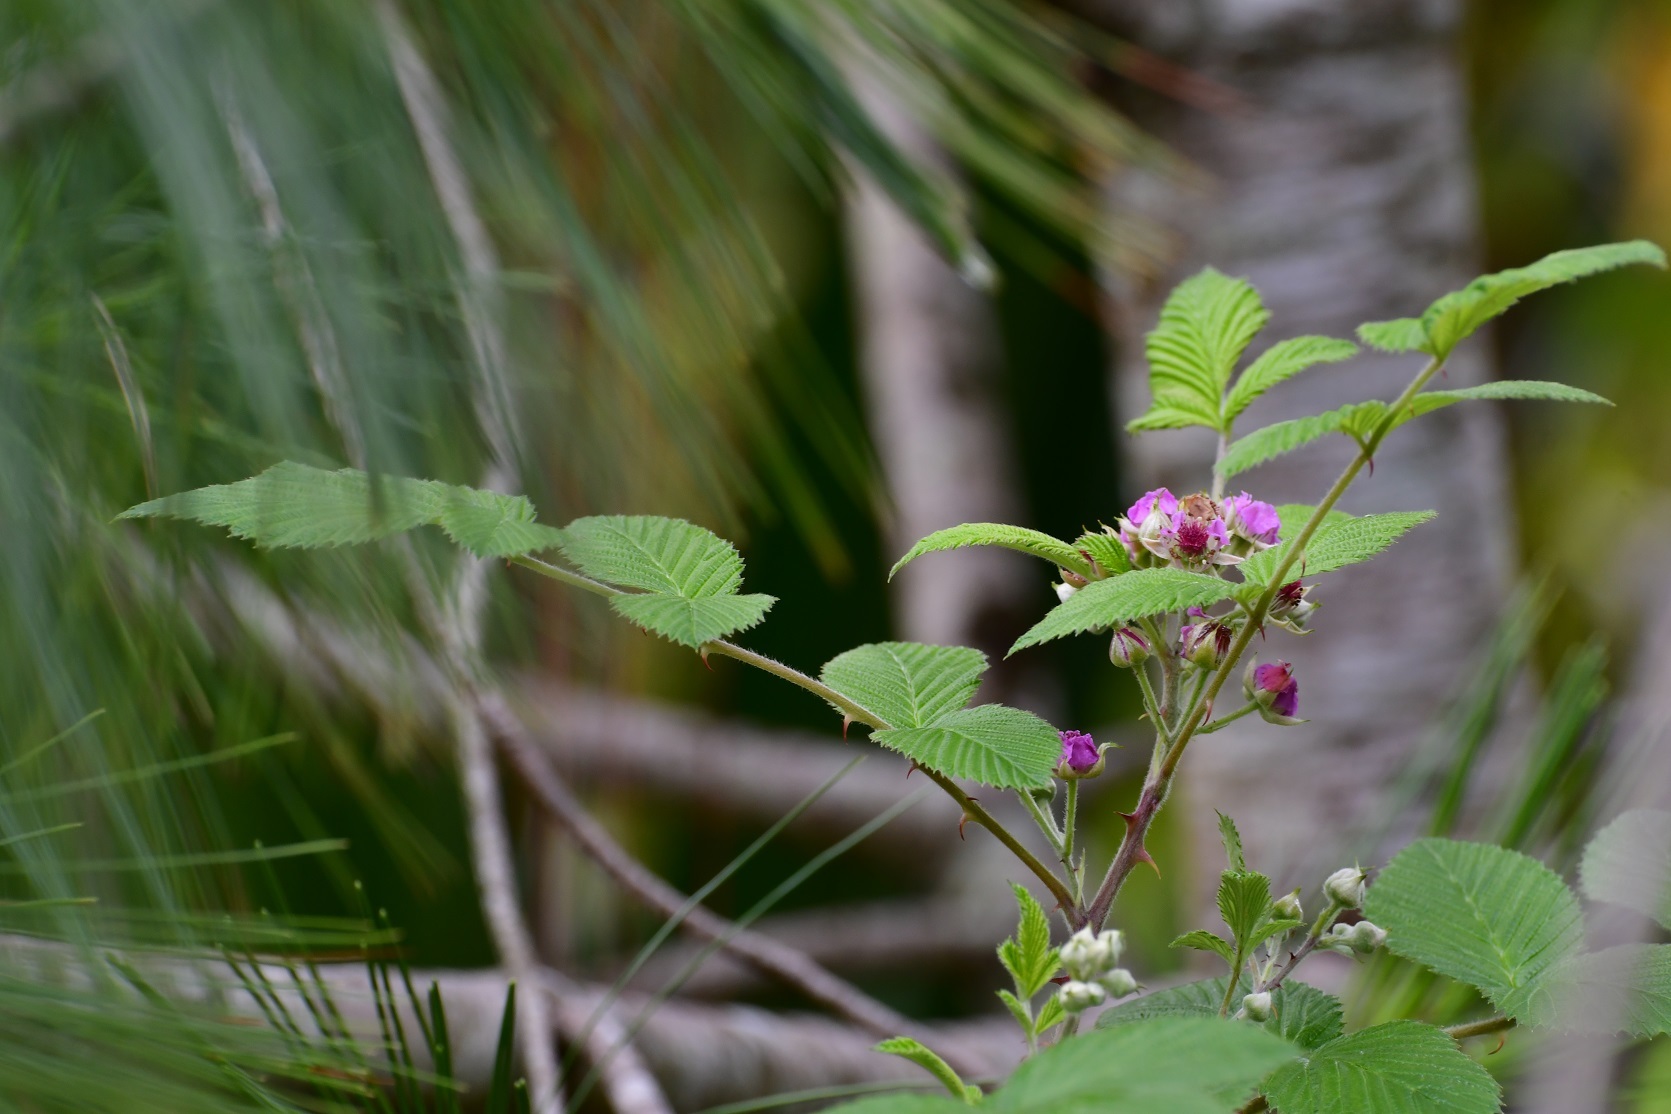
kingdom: Plantae
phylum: Tracheophyta
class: Magnoliopsida
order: Rosales
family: Rosaceae
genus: Rubus
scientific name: Rubus niveus
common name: Snowpeaks raspberry
